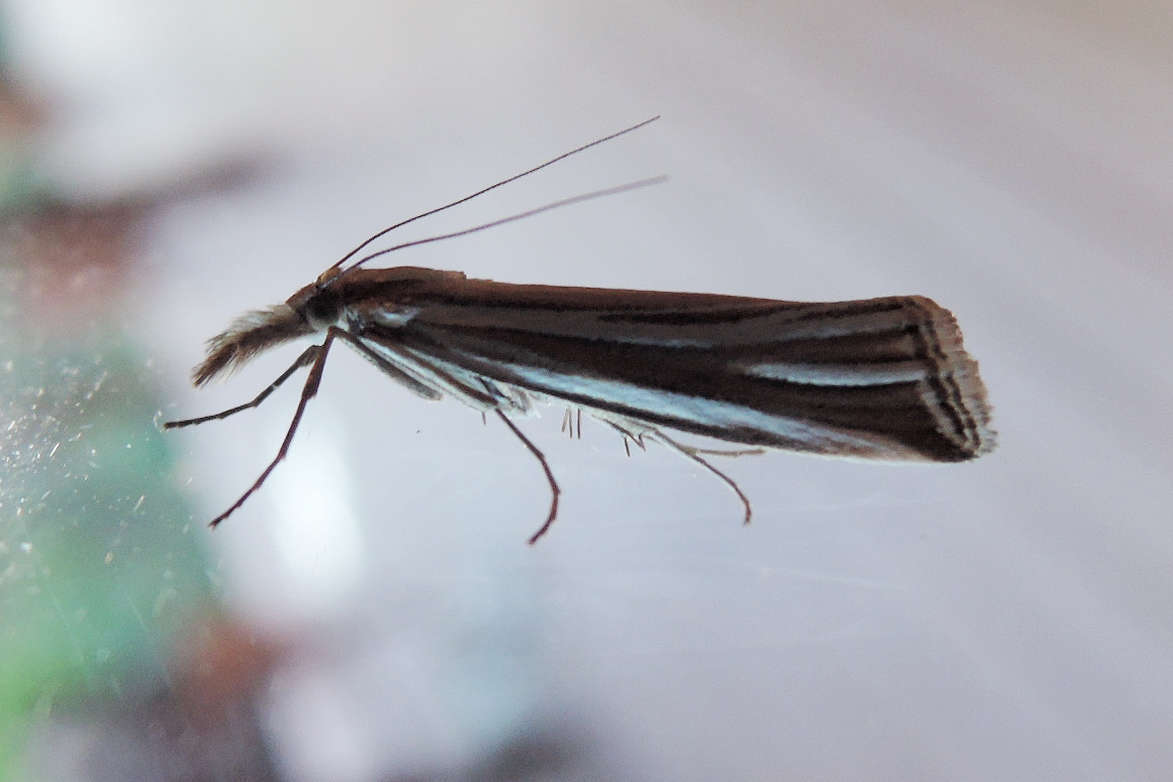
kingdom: Animalia
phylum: Arthropoda
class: Insecta
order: Lepidoptera
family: Crambidae
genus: Hednota
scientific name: Hednota relatalis
